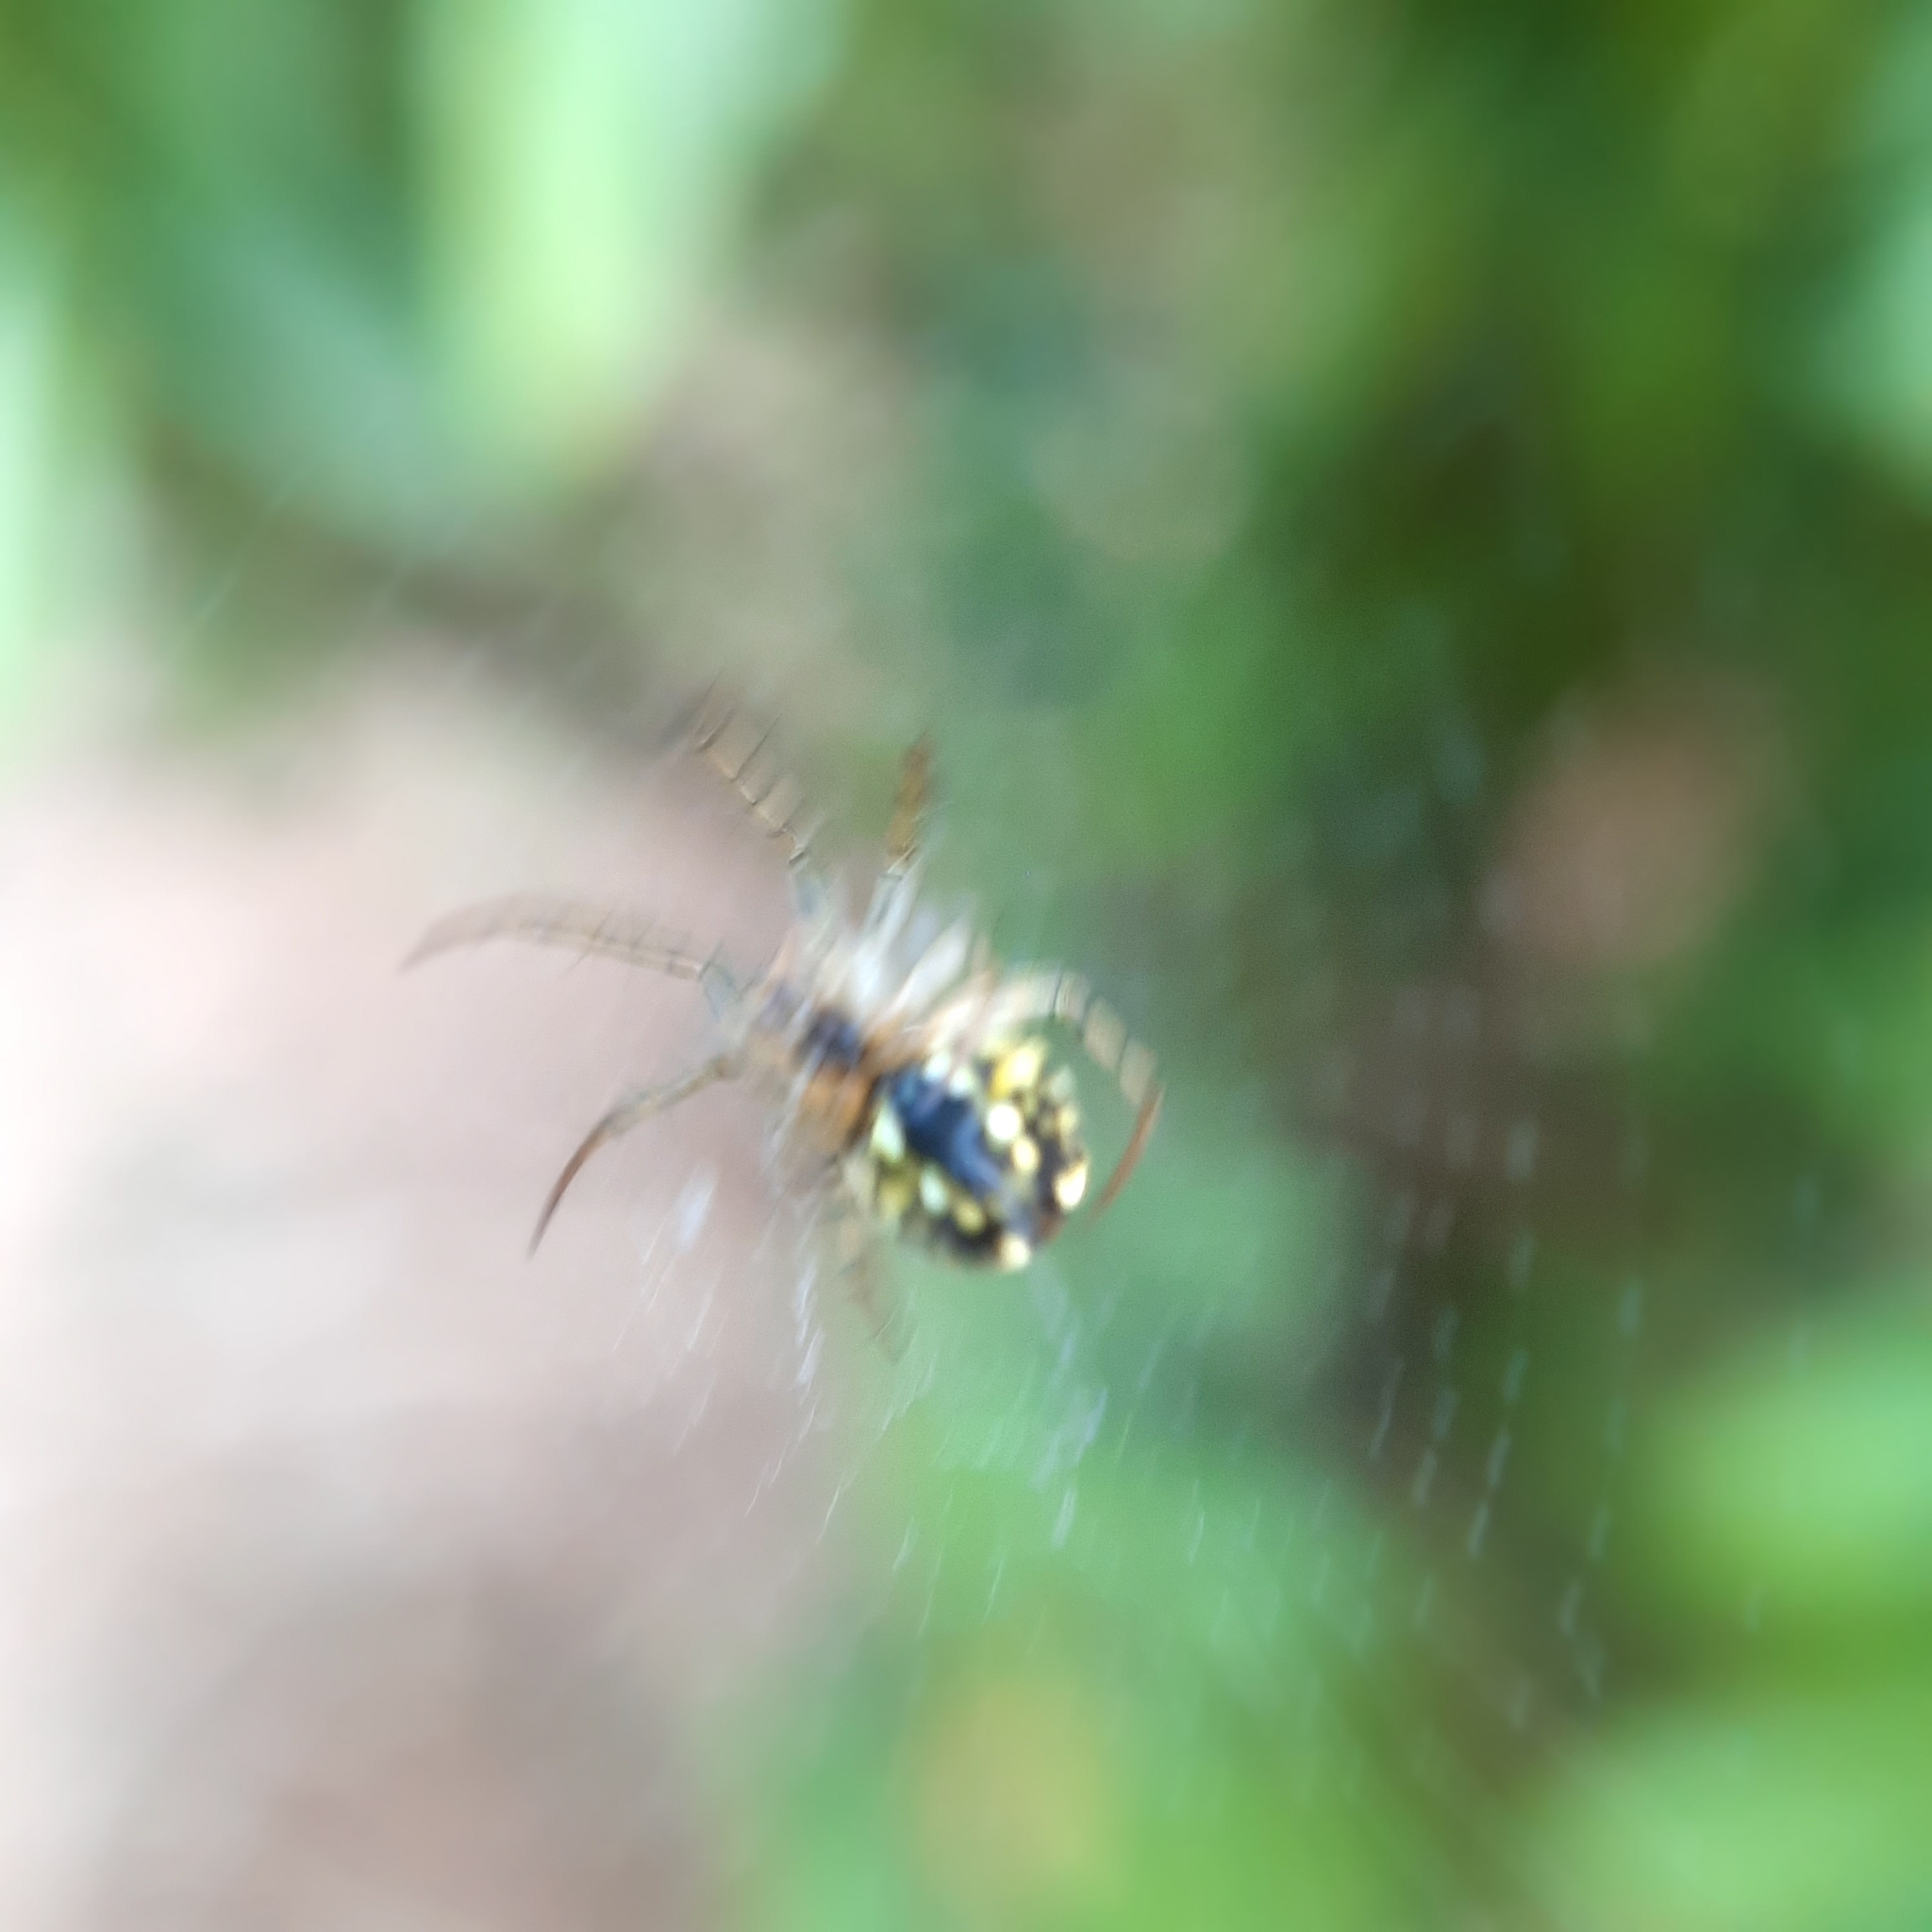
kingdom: Animalia
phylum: Arthropoda
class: Arachnida
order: Araneae
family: Araneidae
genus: Mangora
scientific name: Mangora acalypha
